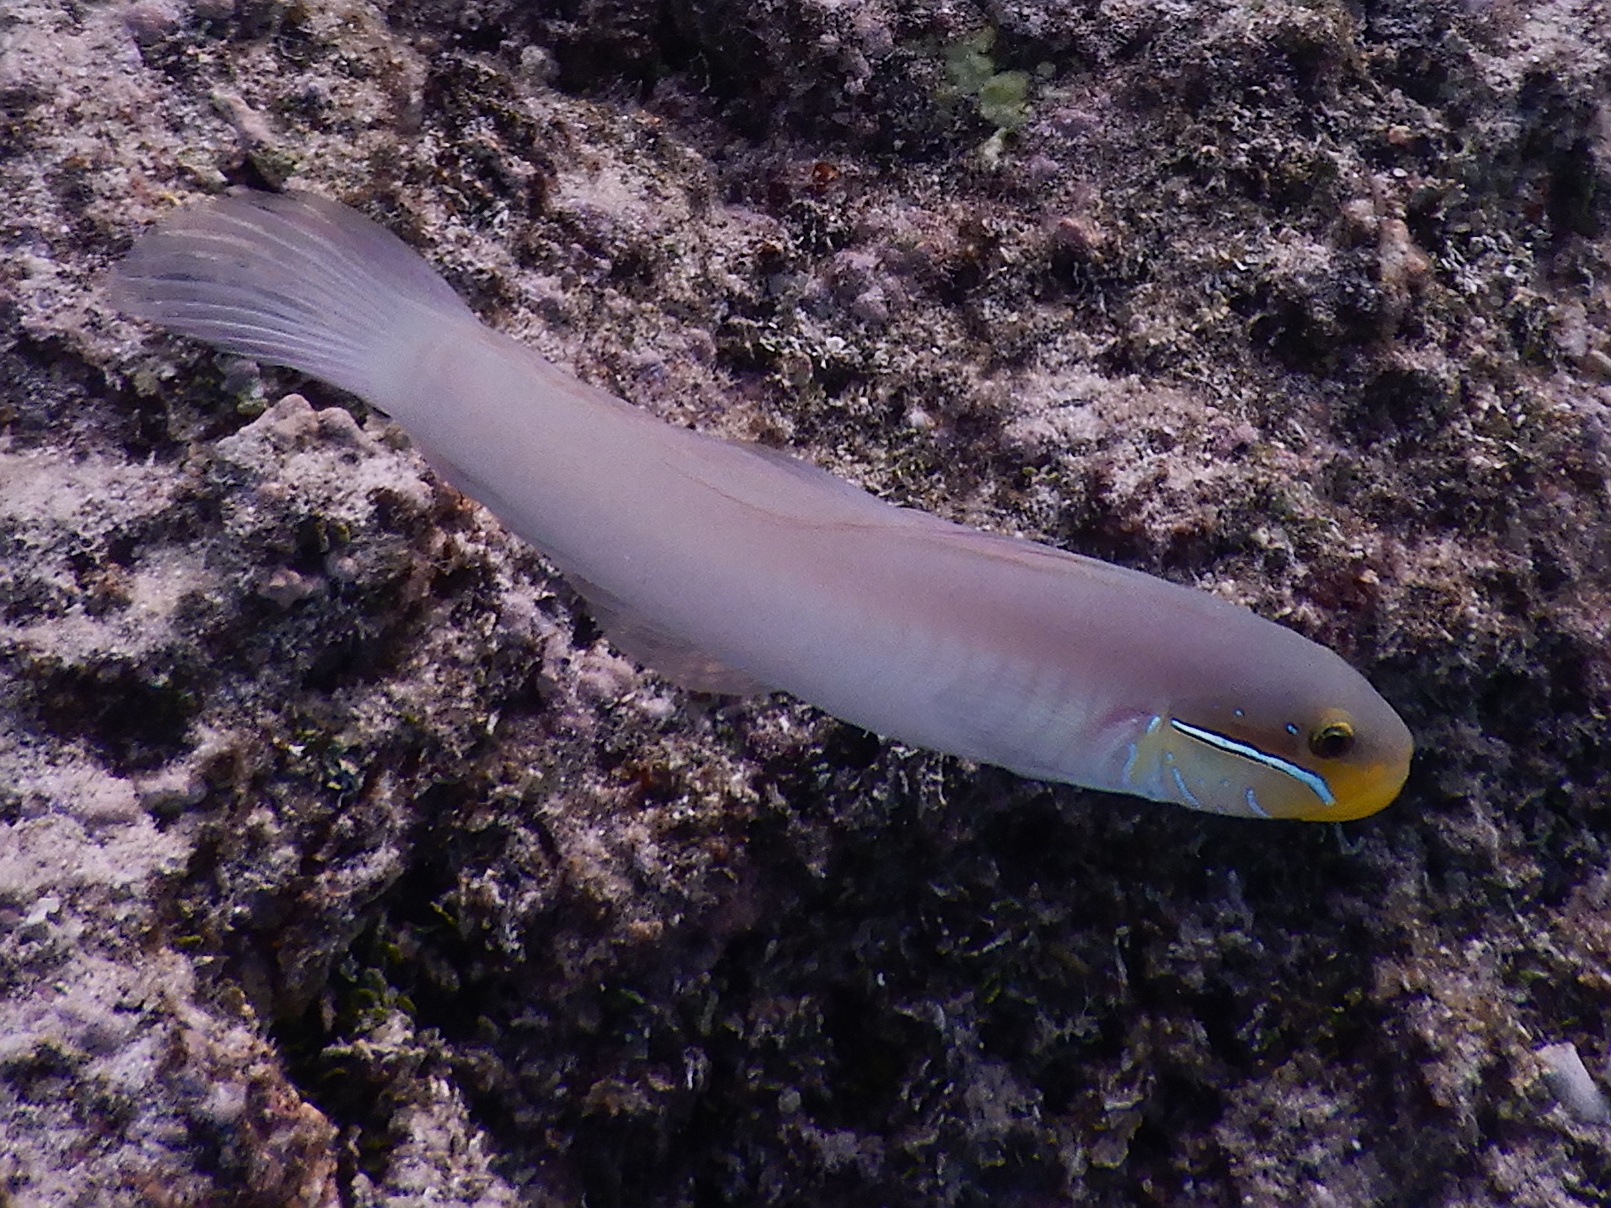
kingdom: Animalia
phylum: Chordata
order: Perciformes
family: Gobiidae
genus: Valenciennea
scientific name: Valenciennea strigata
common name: Blueband goby
